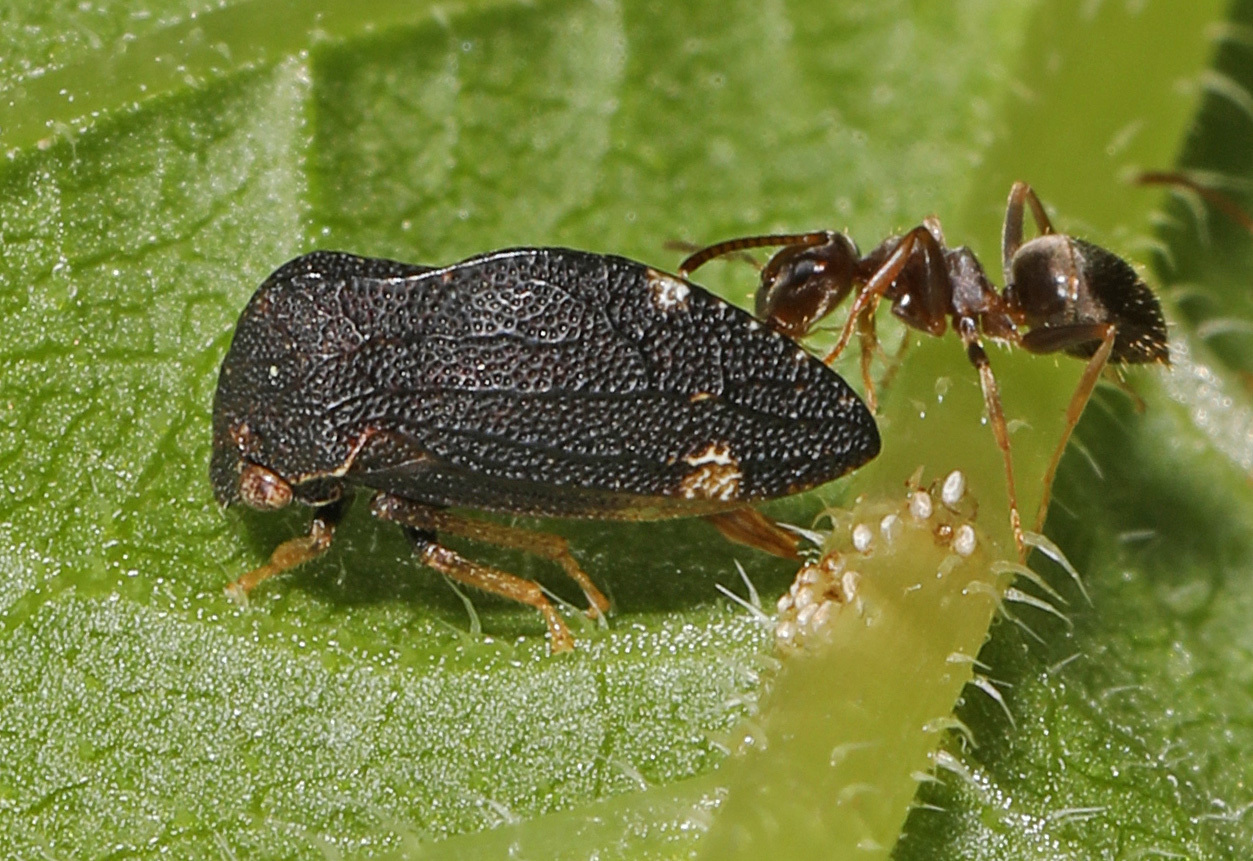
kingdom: Animalia
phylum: Arthropoda
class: Insecta
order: Hemiptera
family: Membracidae
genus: Publilia
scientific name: Publilia concava
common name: Aster treehopper
